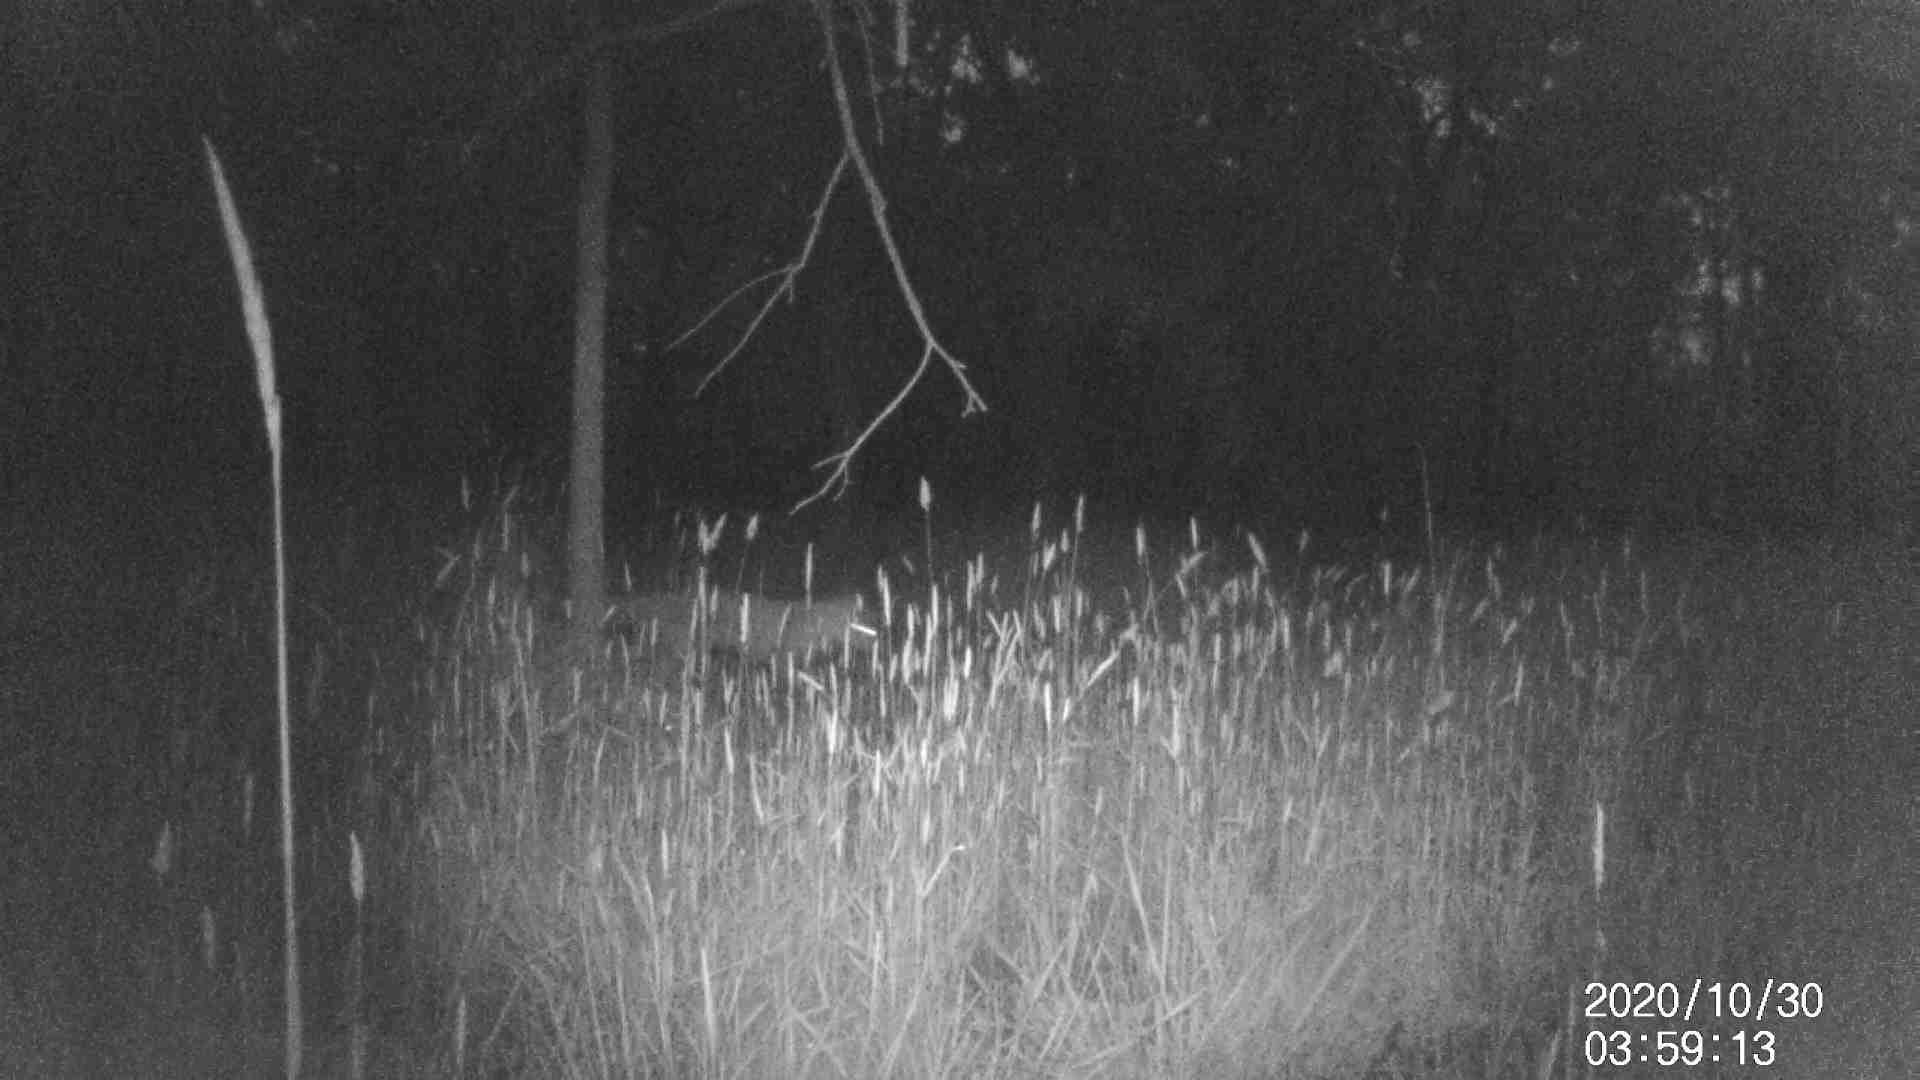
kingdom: Animalia
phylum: Chordata
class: Mammalia
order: Carnivora
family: Canidae
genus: Vulpes
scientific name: Vulpes vulpes
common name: Red fox
